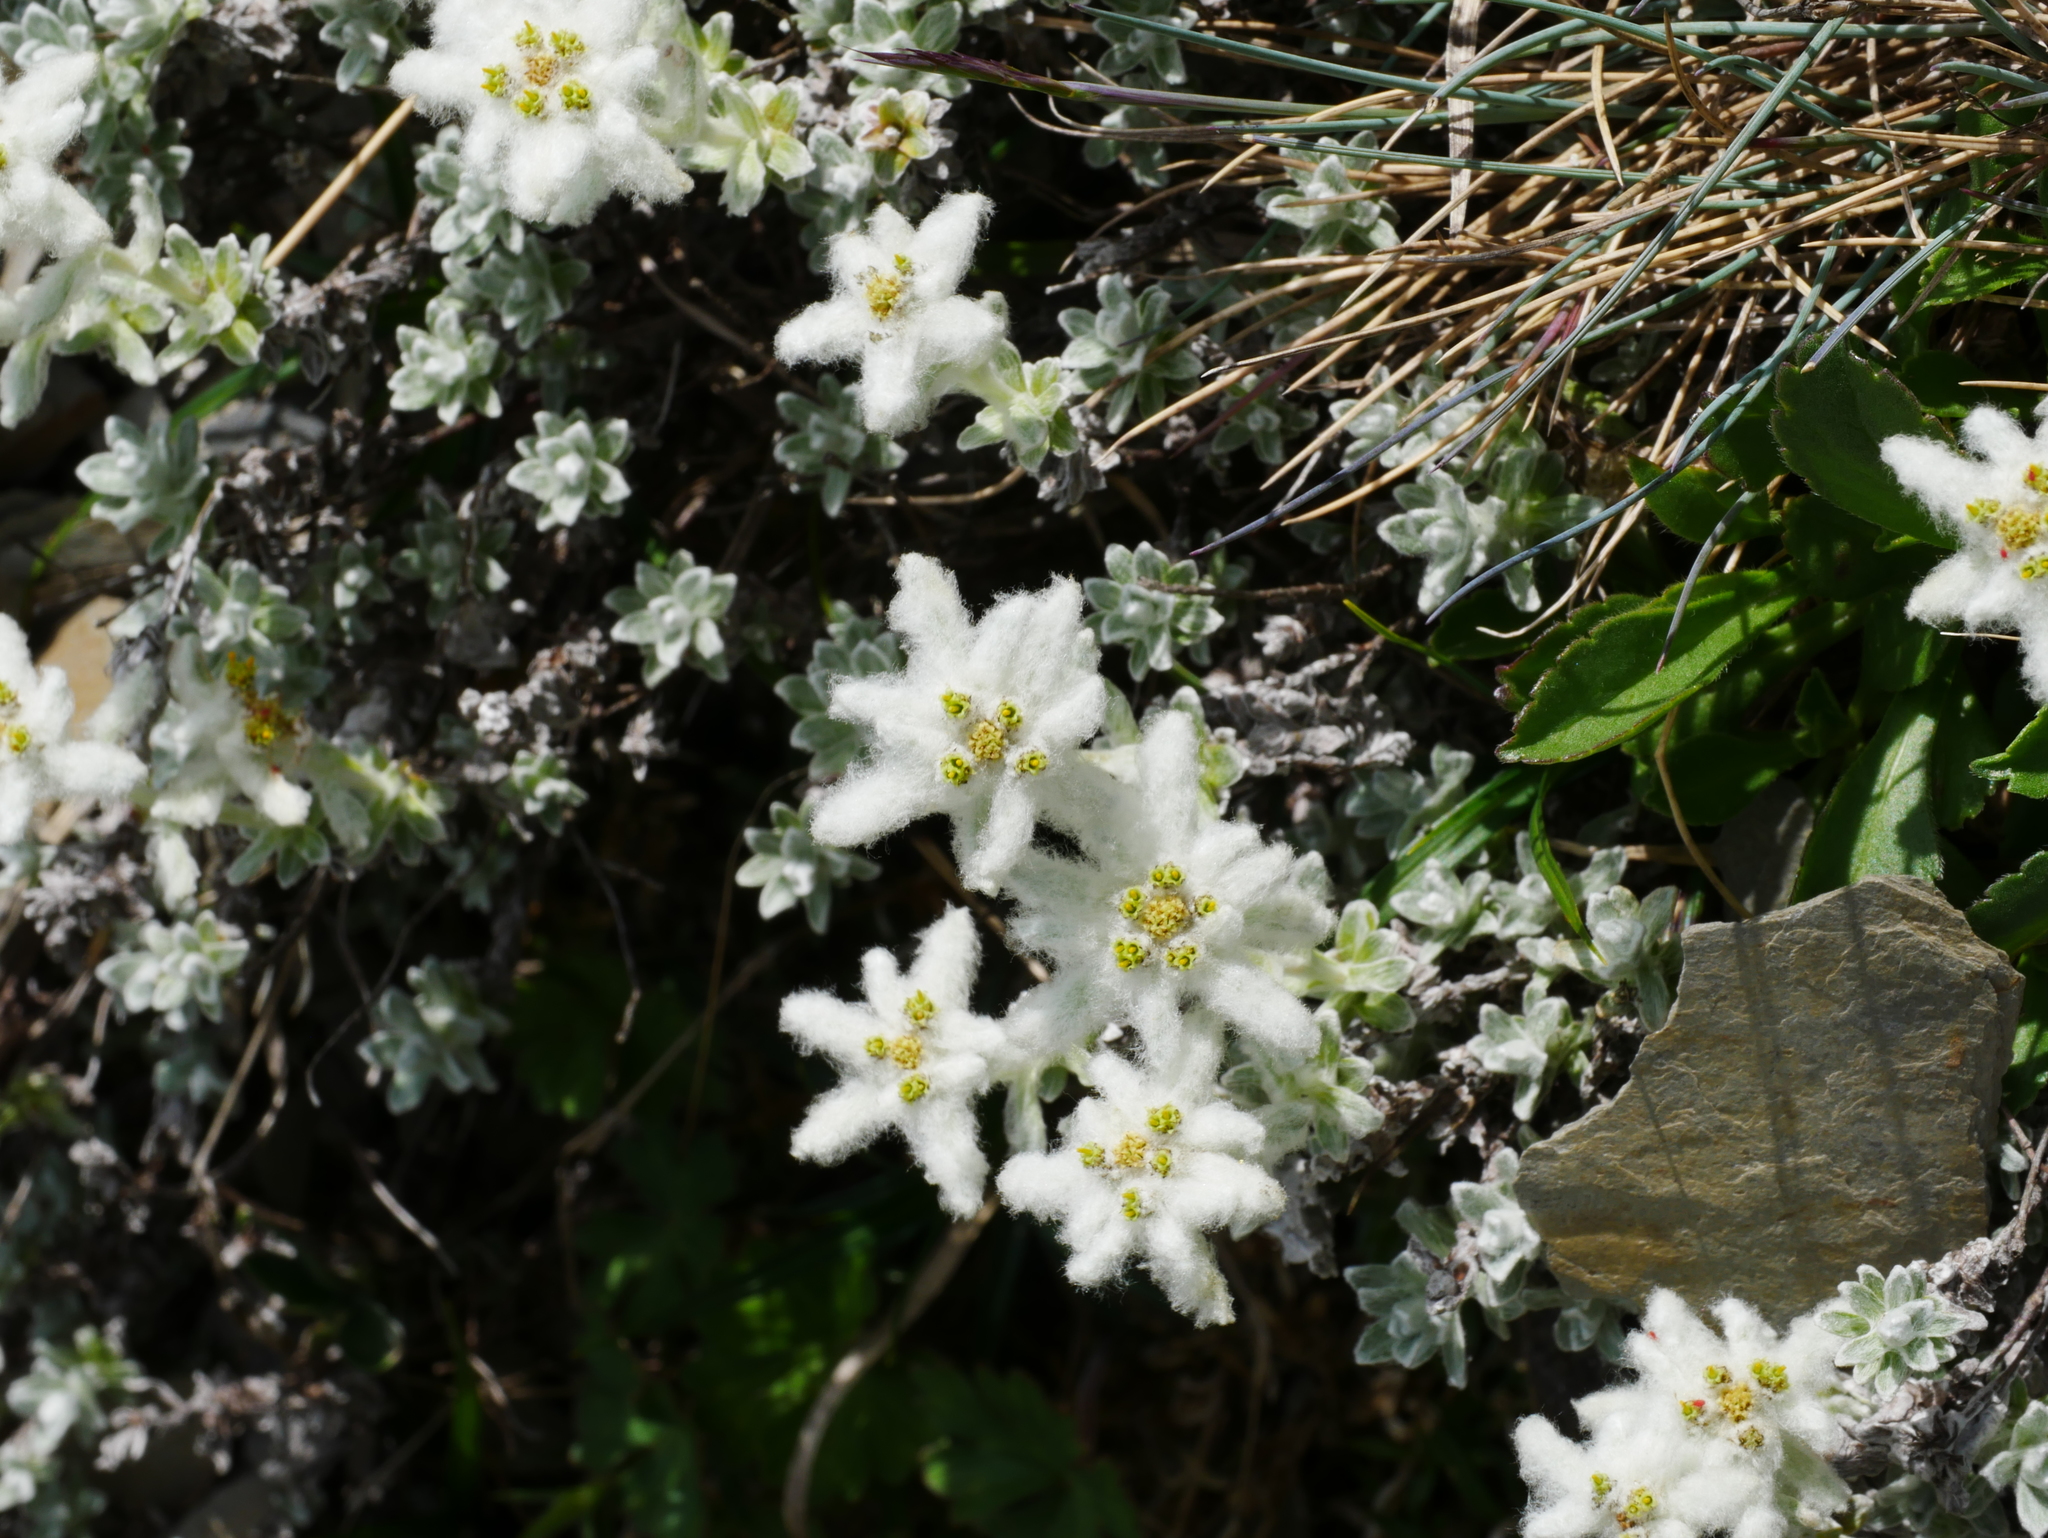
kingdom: Plantae
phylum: Tracheophyta
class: Magnoliopsida
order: Asterales
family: Asteraceae
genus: Leontopodium
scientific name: Leontopodium microphyllum
